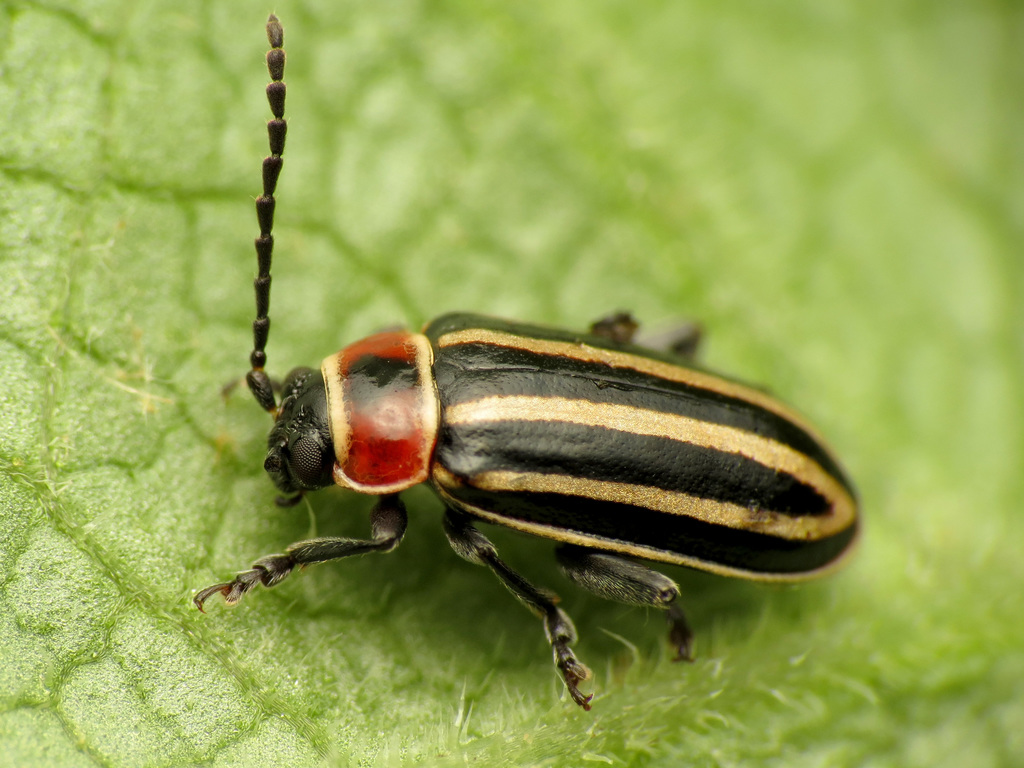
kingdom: Animalia
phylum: Arthropoda
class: Insecta
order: Coleoptera
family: Chrysomelidae
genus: Disonycha
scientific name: Disonycha pensylvanica
